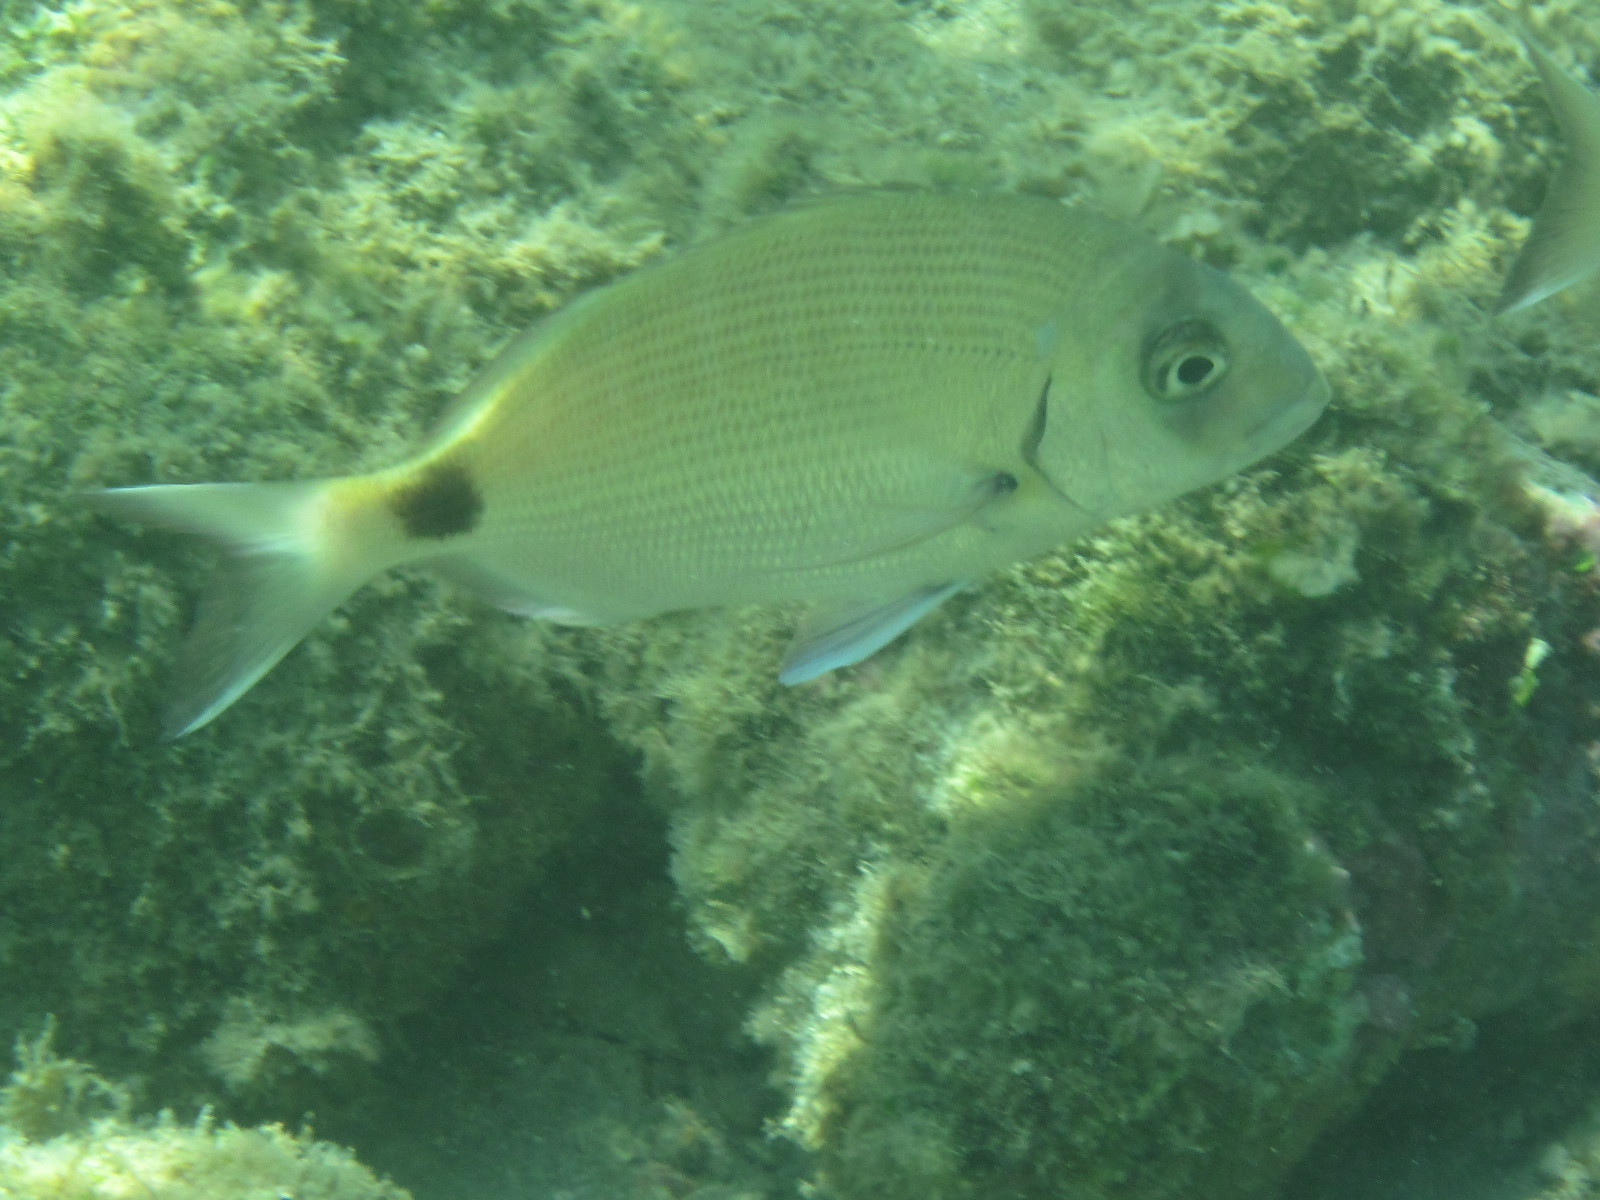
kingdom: Animalia
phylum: Chordata
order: Perciformes
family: Sparidae
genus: Diplodus
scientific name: Diplodus sargus
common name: White seabream
